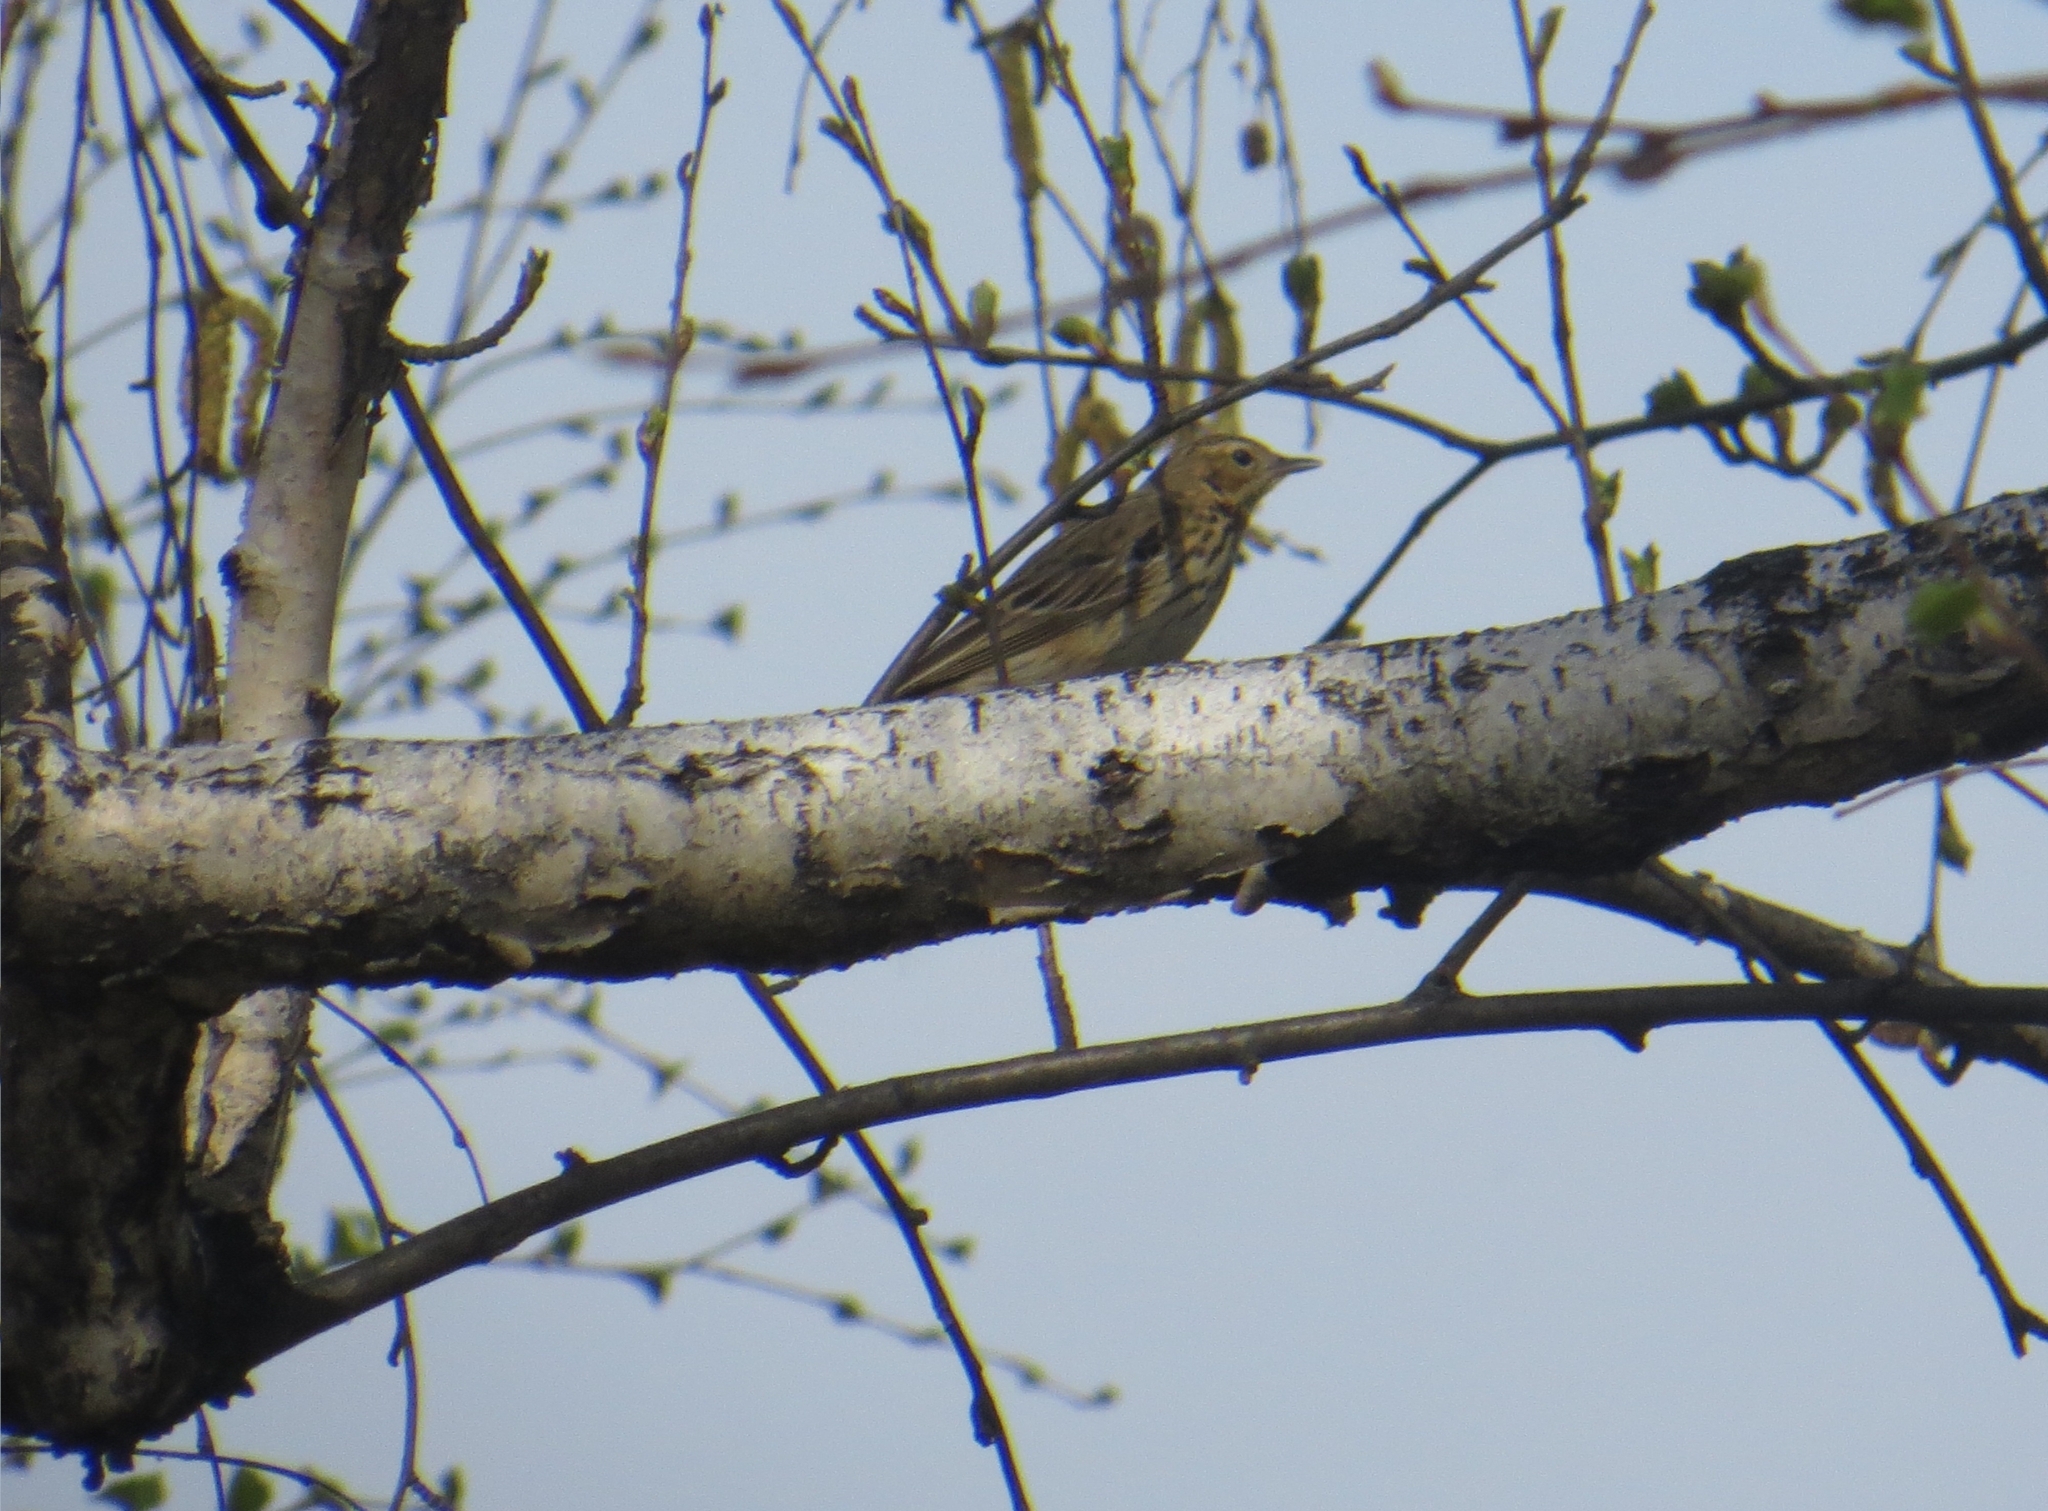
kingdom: Animalia
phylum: Chordata
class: Aves
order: Passeriformes
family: Motacillidae
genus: Anthus
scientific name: Anthus trivialis
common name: Tree pipit
